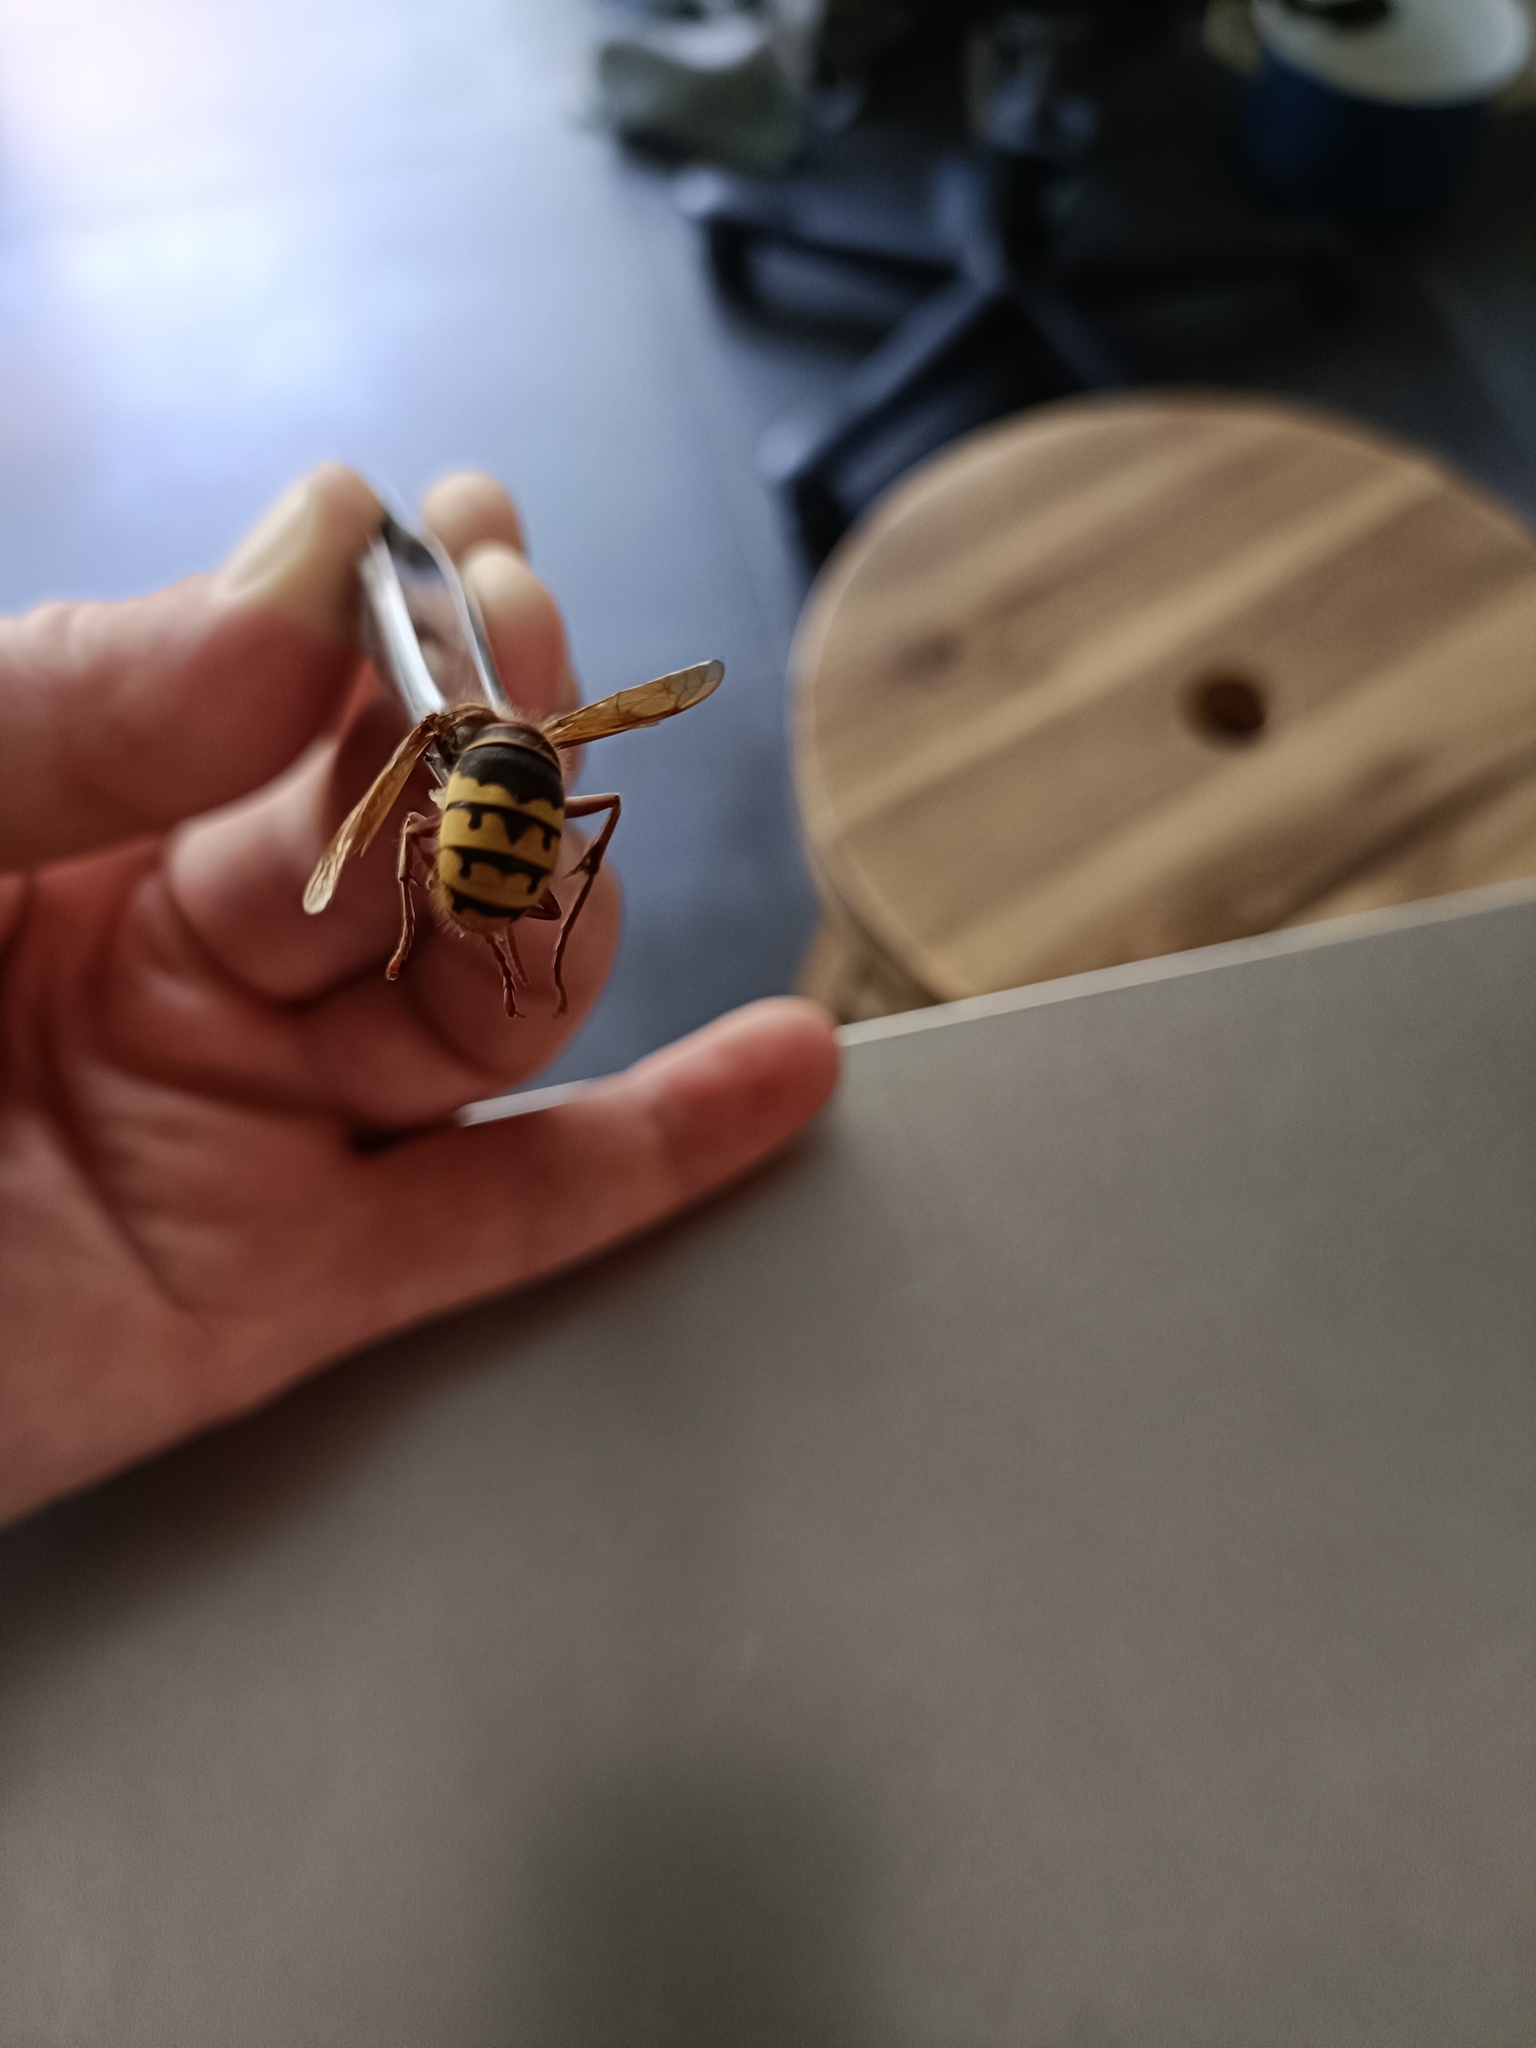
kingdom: Animalia
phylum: Arthropoda
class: Insecta
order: Hymenoptera
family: Vespidae
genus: Vespa
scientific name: Vespa crabro
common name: Hornet
